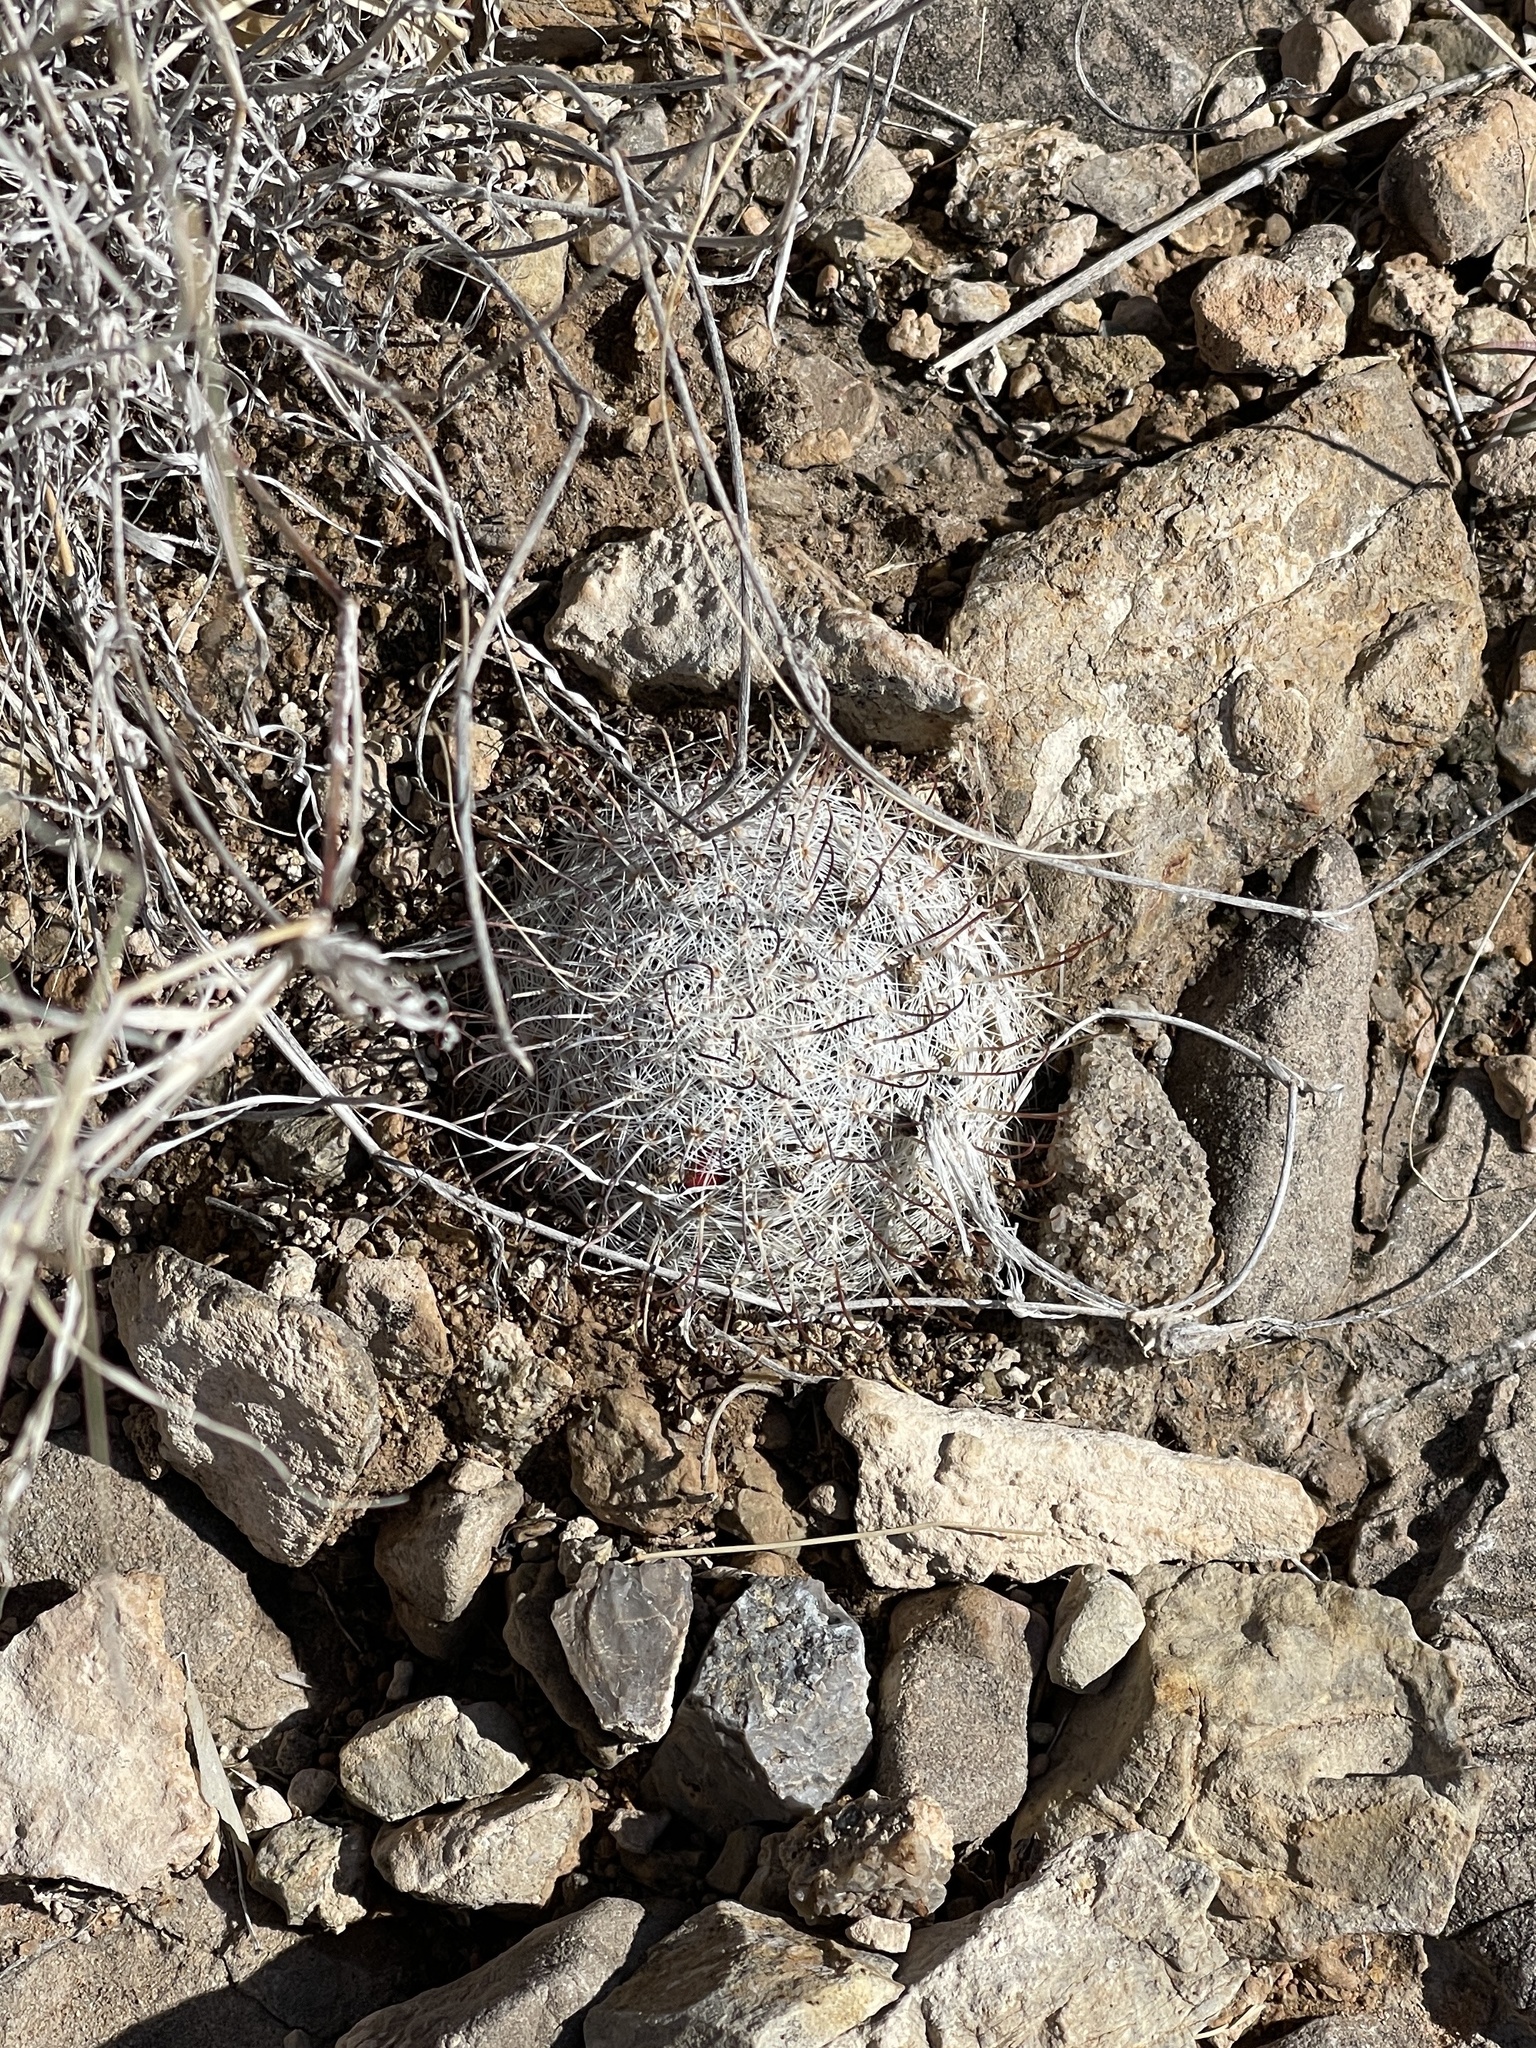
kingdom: Plantae
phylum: Tracheophyta
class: Magnoliopsida
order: Caryophyllales
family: Cactaceae
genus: Cochemiea
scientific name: Cochemiea grahamii
